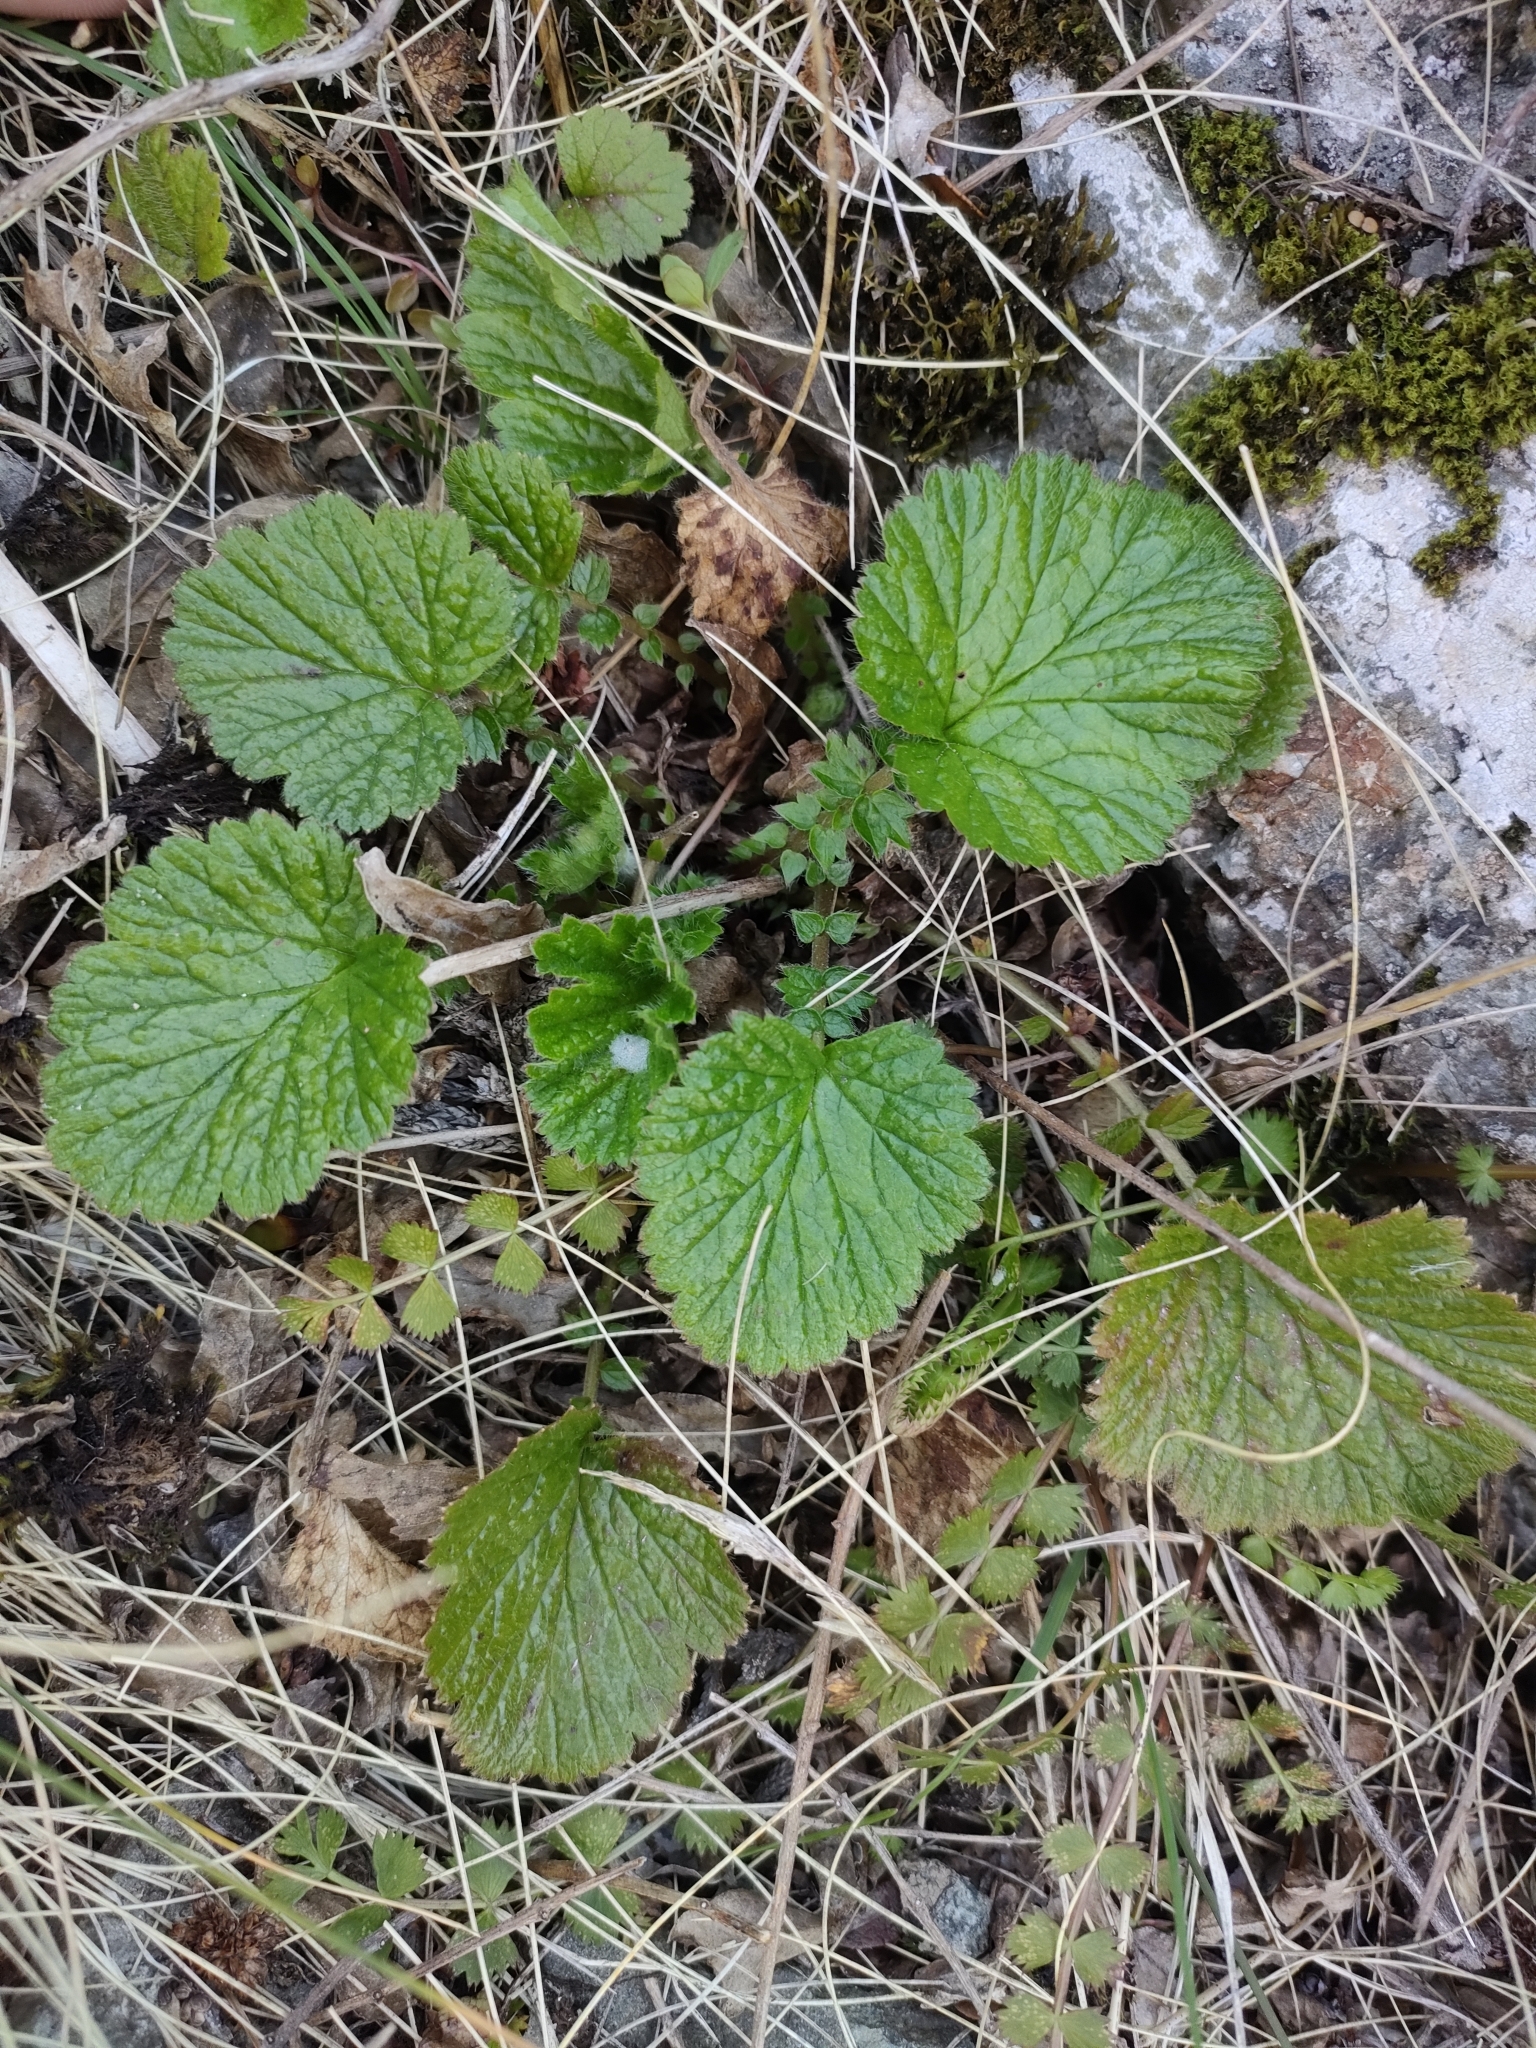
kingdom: Plantae
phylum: Tracheophyta
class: Magnoliopsida
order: Rosales
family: Rosaceae
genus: Geum
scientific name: Geum cockaynei
